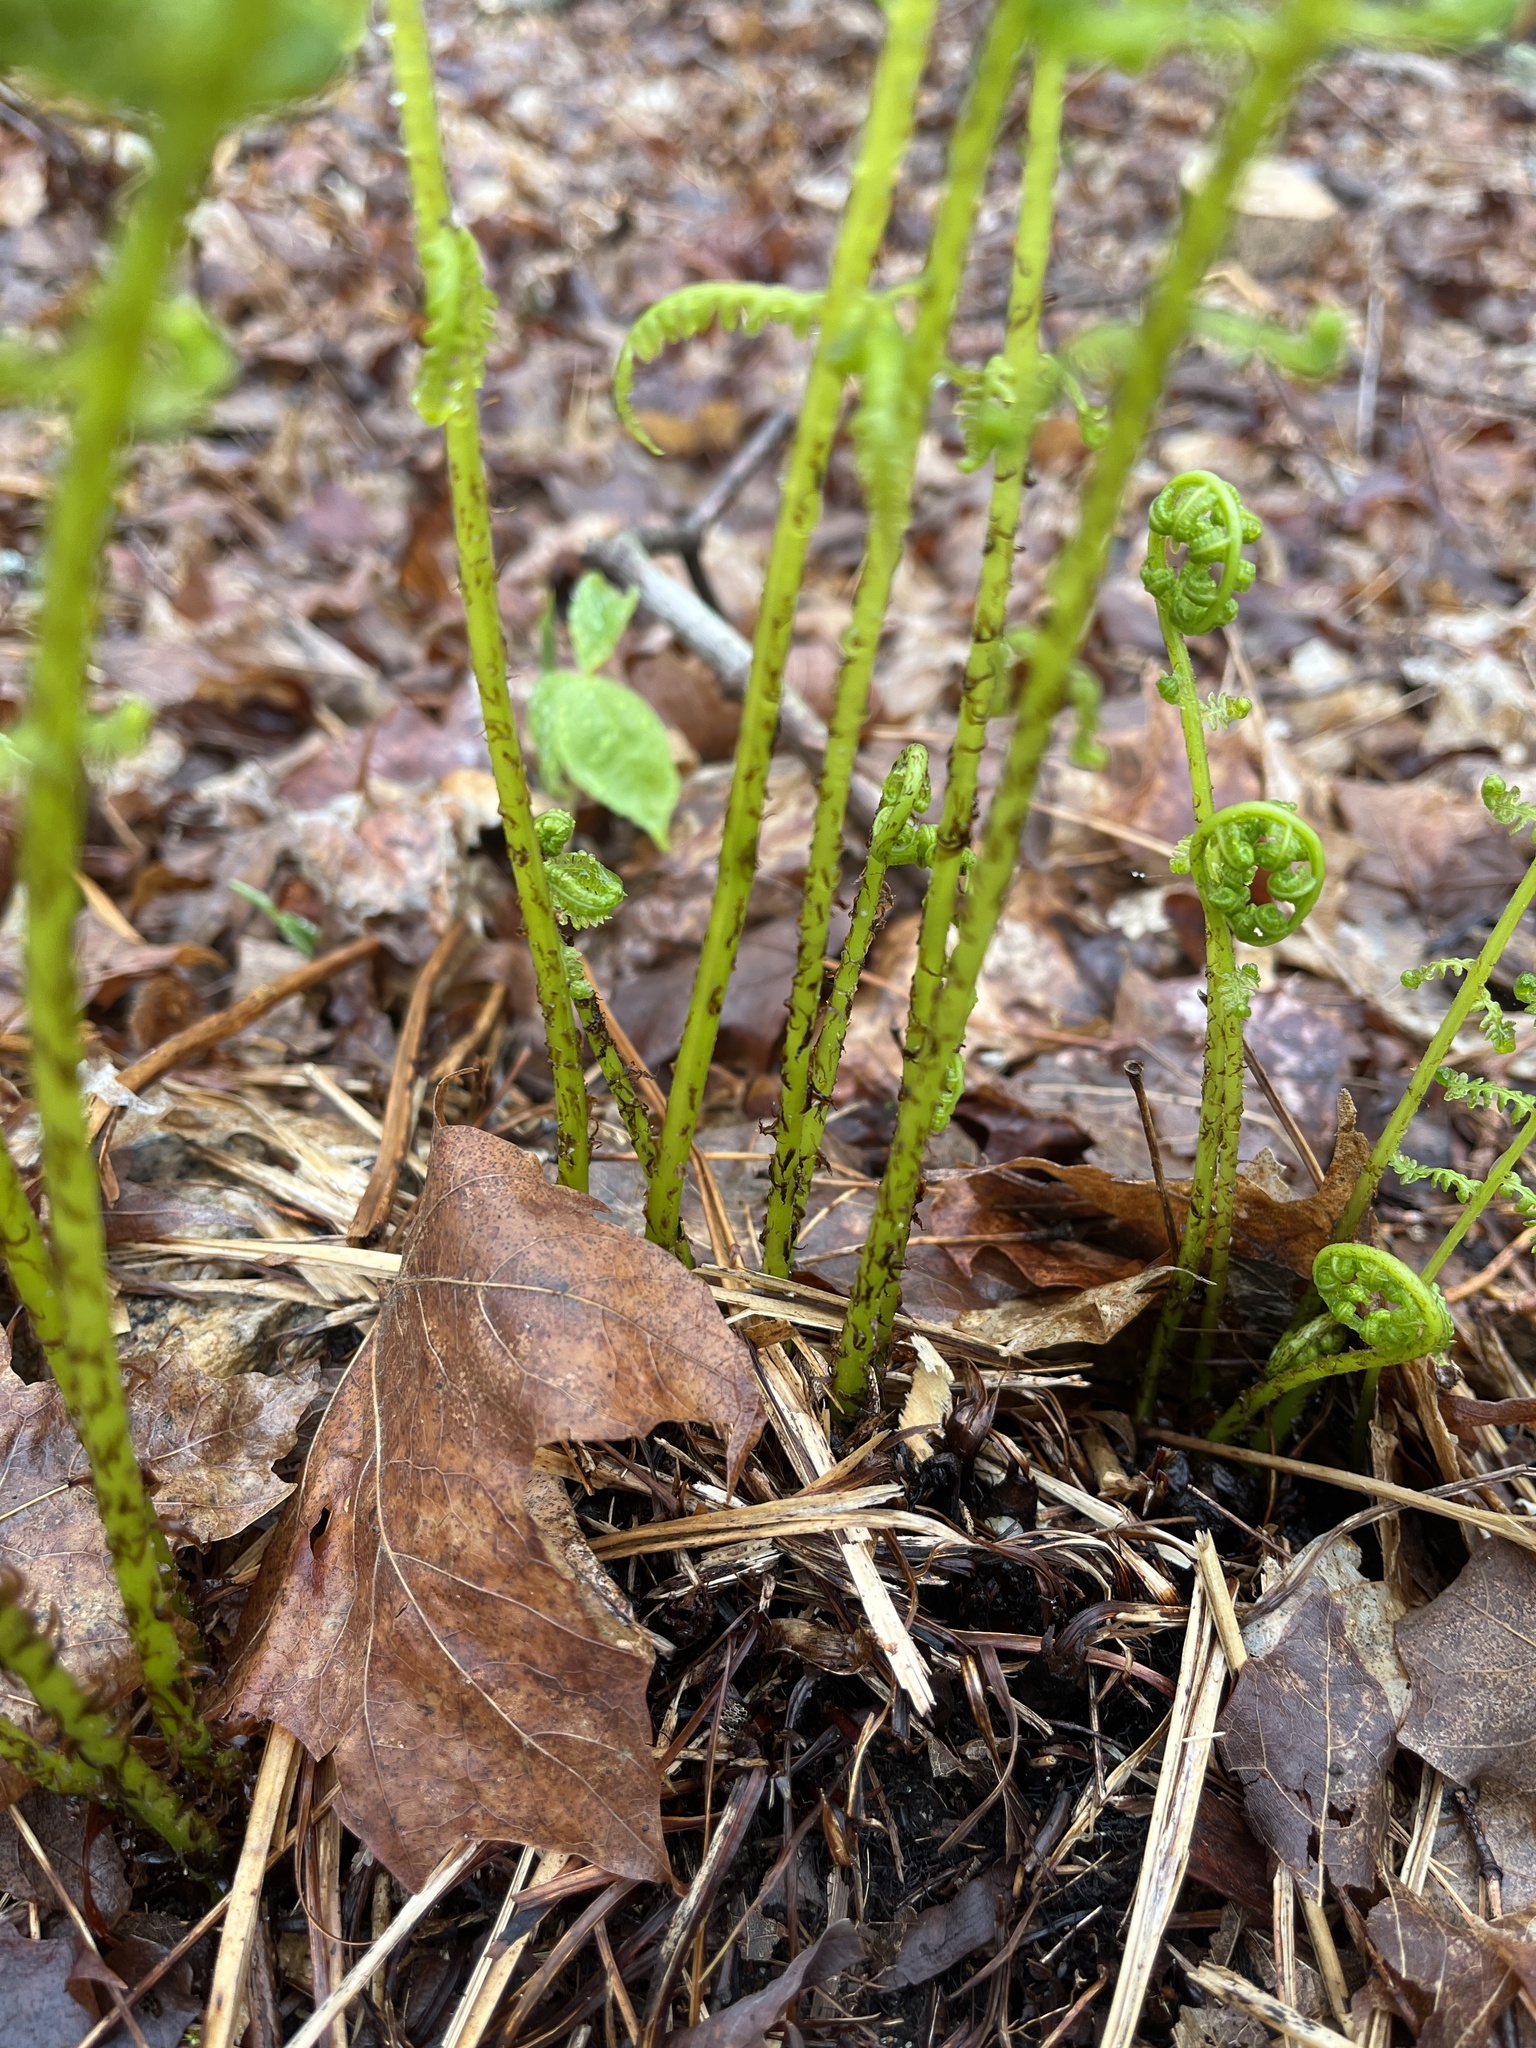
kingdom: Plantae
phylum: Tracheophyta
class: Polypodiopsida
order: Polypodiales
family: Athyriaceae
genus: Athyrium
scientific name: Athyrium angustum
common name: Northern lady fern
